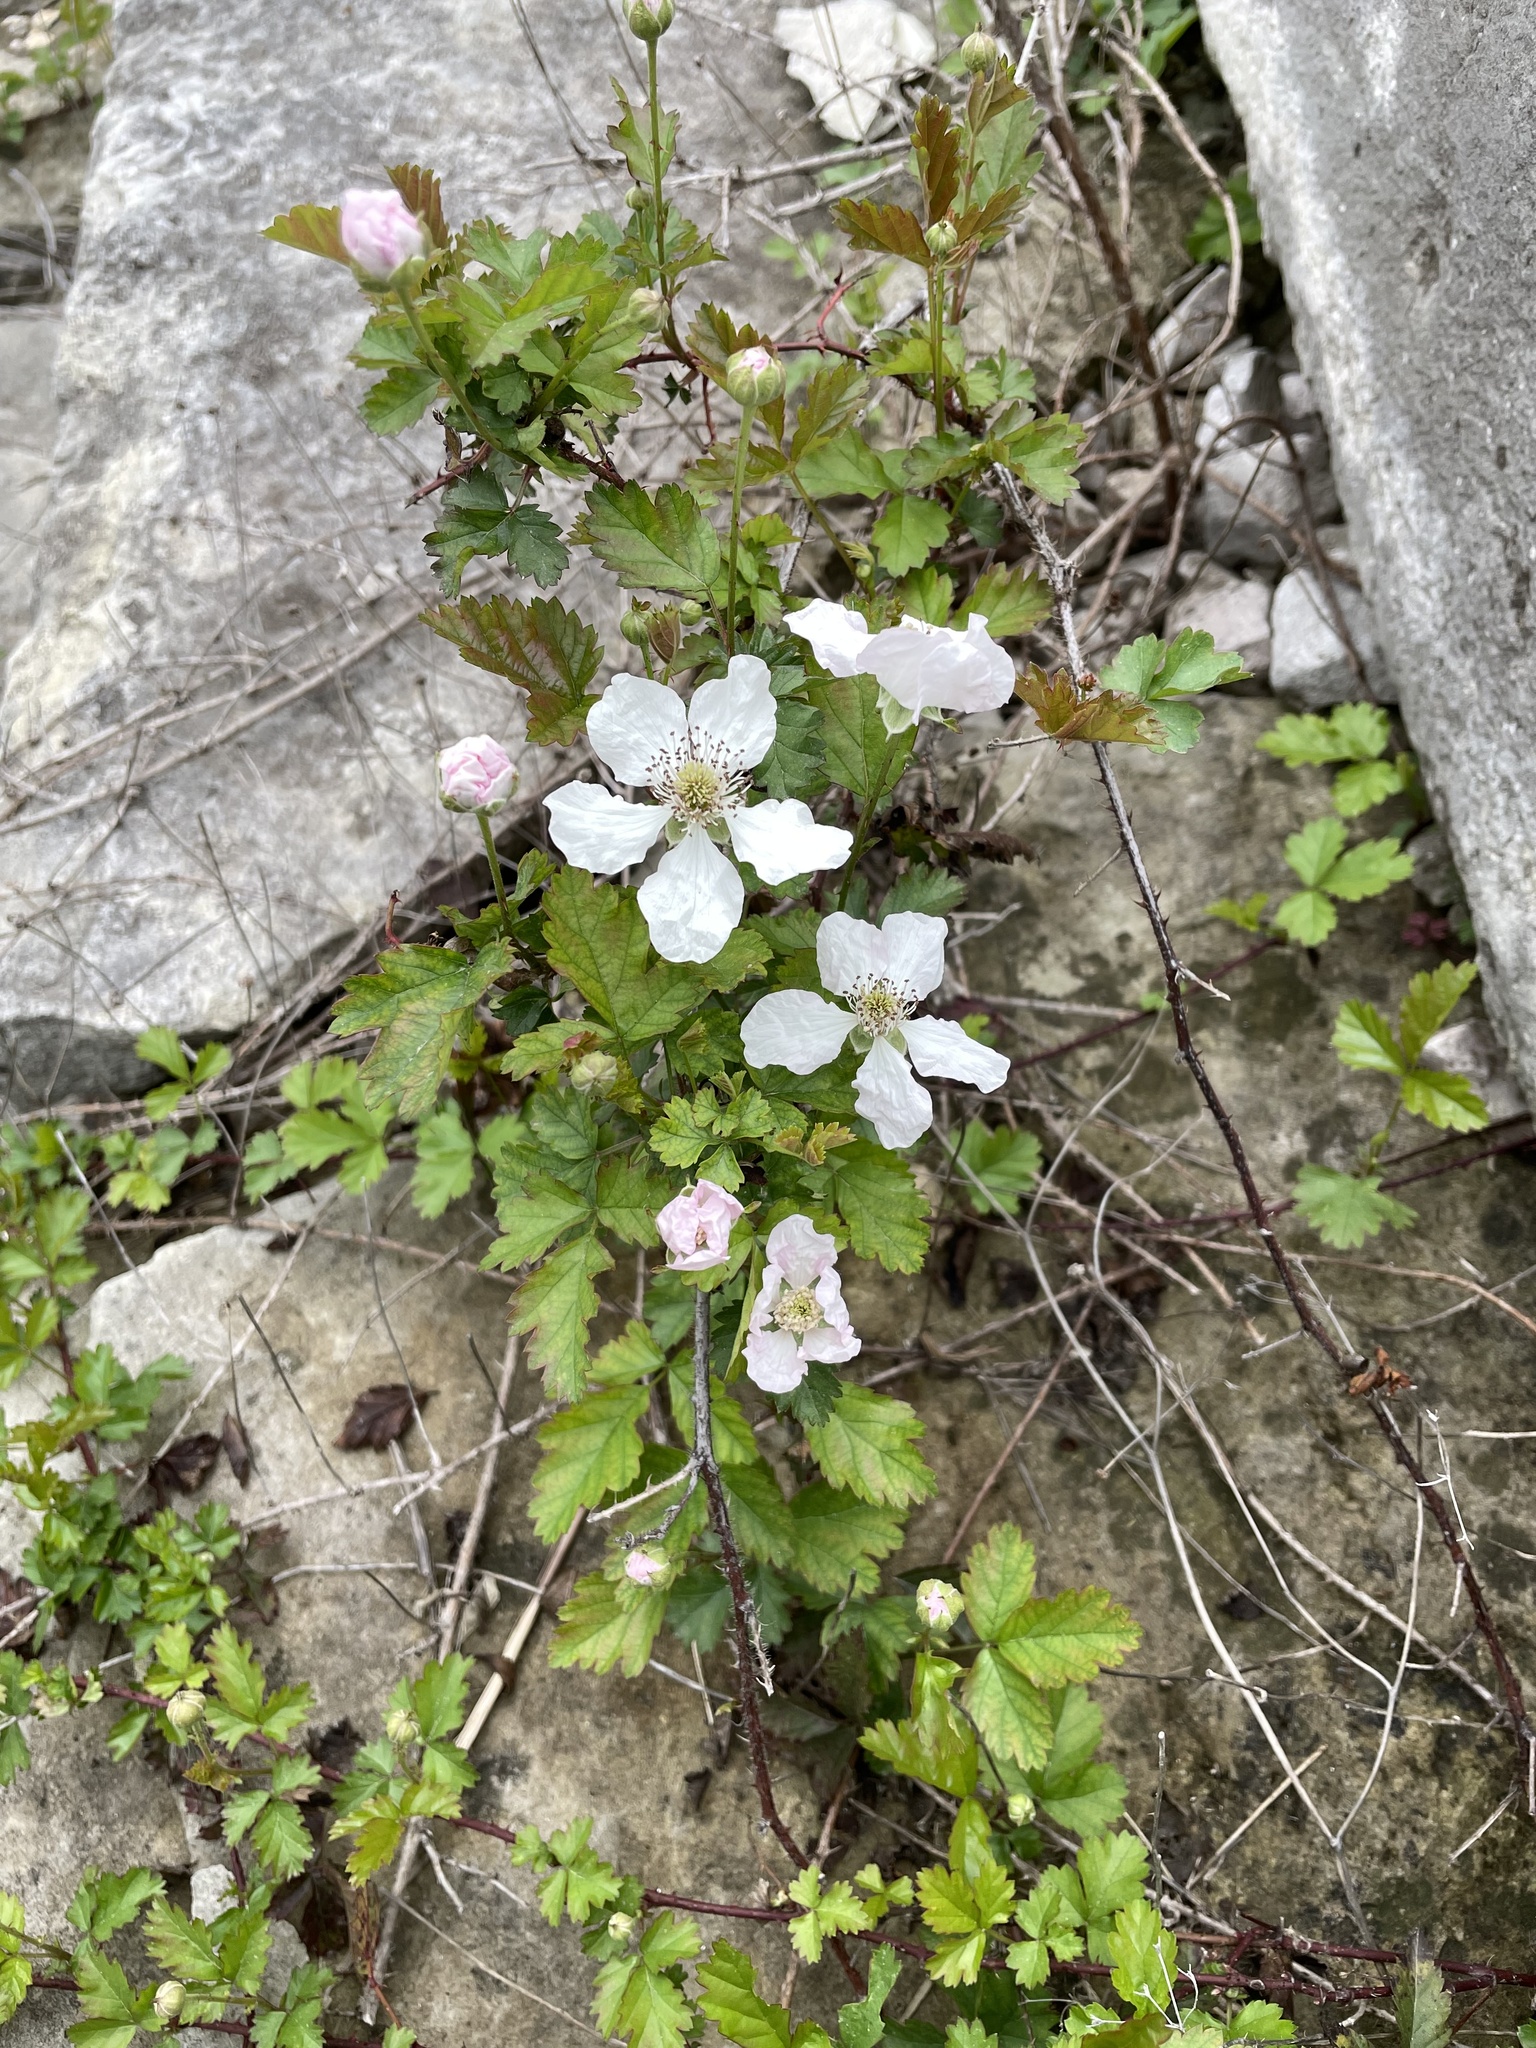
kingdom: Plantae
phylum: Tracheophyta
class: Magnoliopsida
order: Rosales
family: Rosaceae
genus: Rubus
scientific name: Rubus trivialis
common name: Southern dewberry
